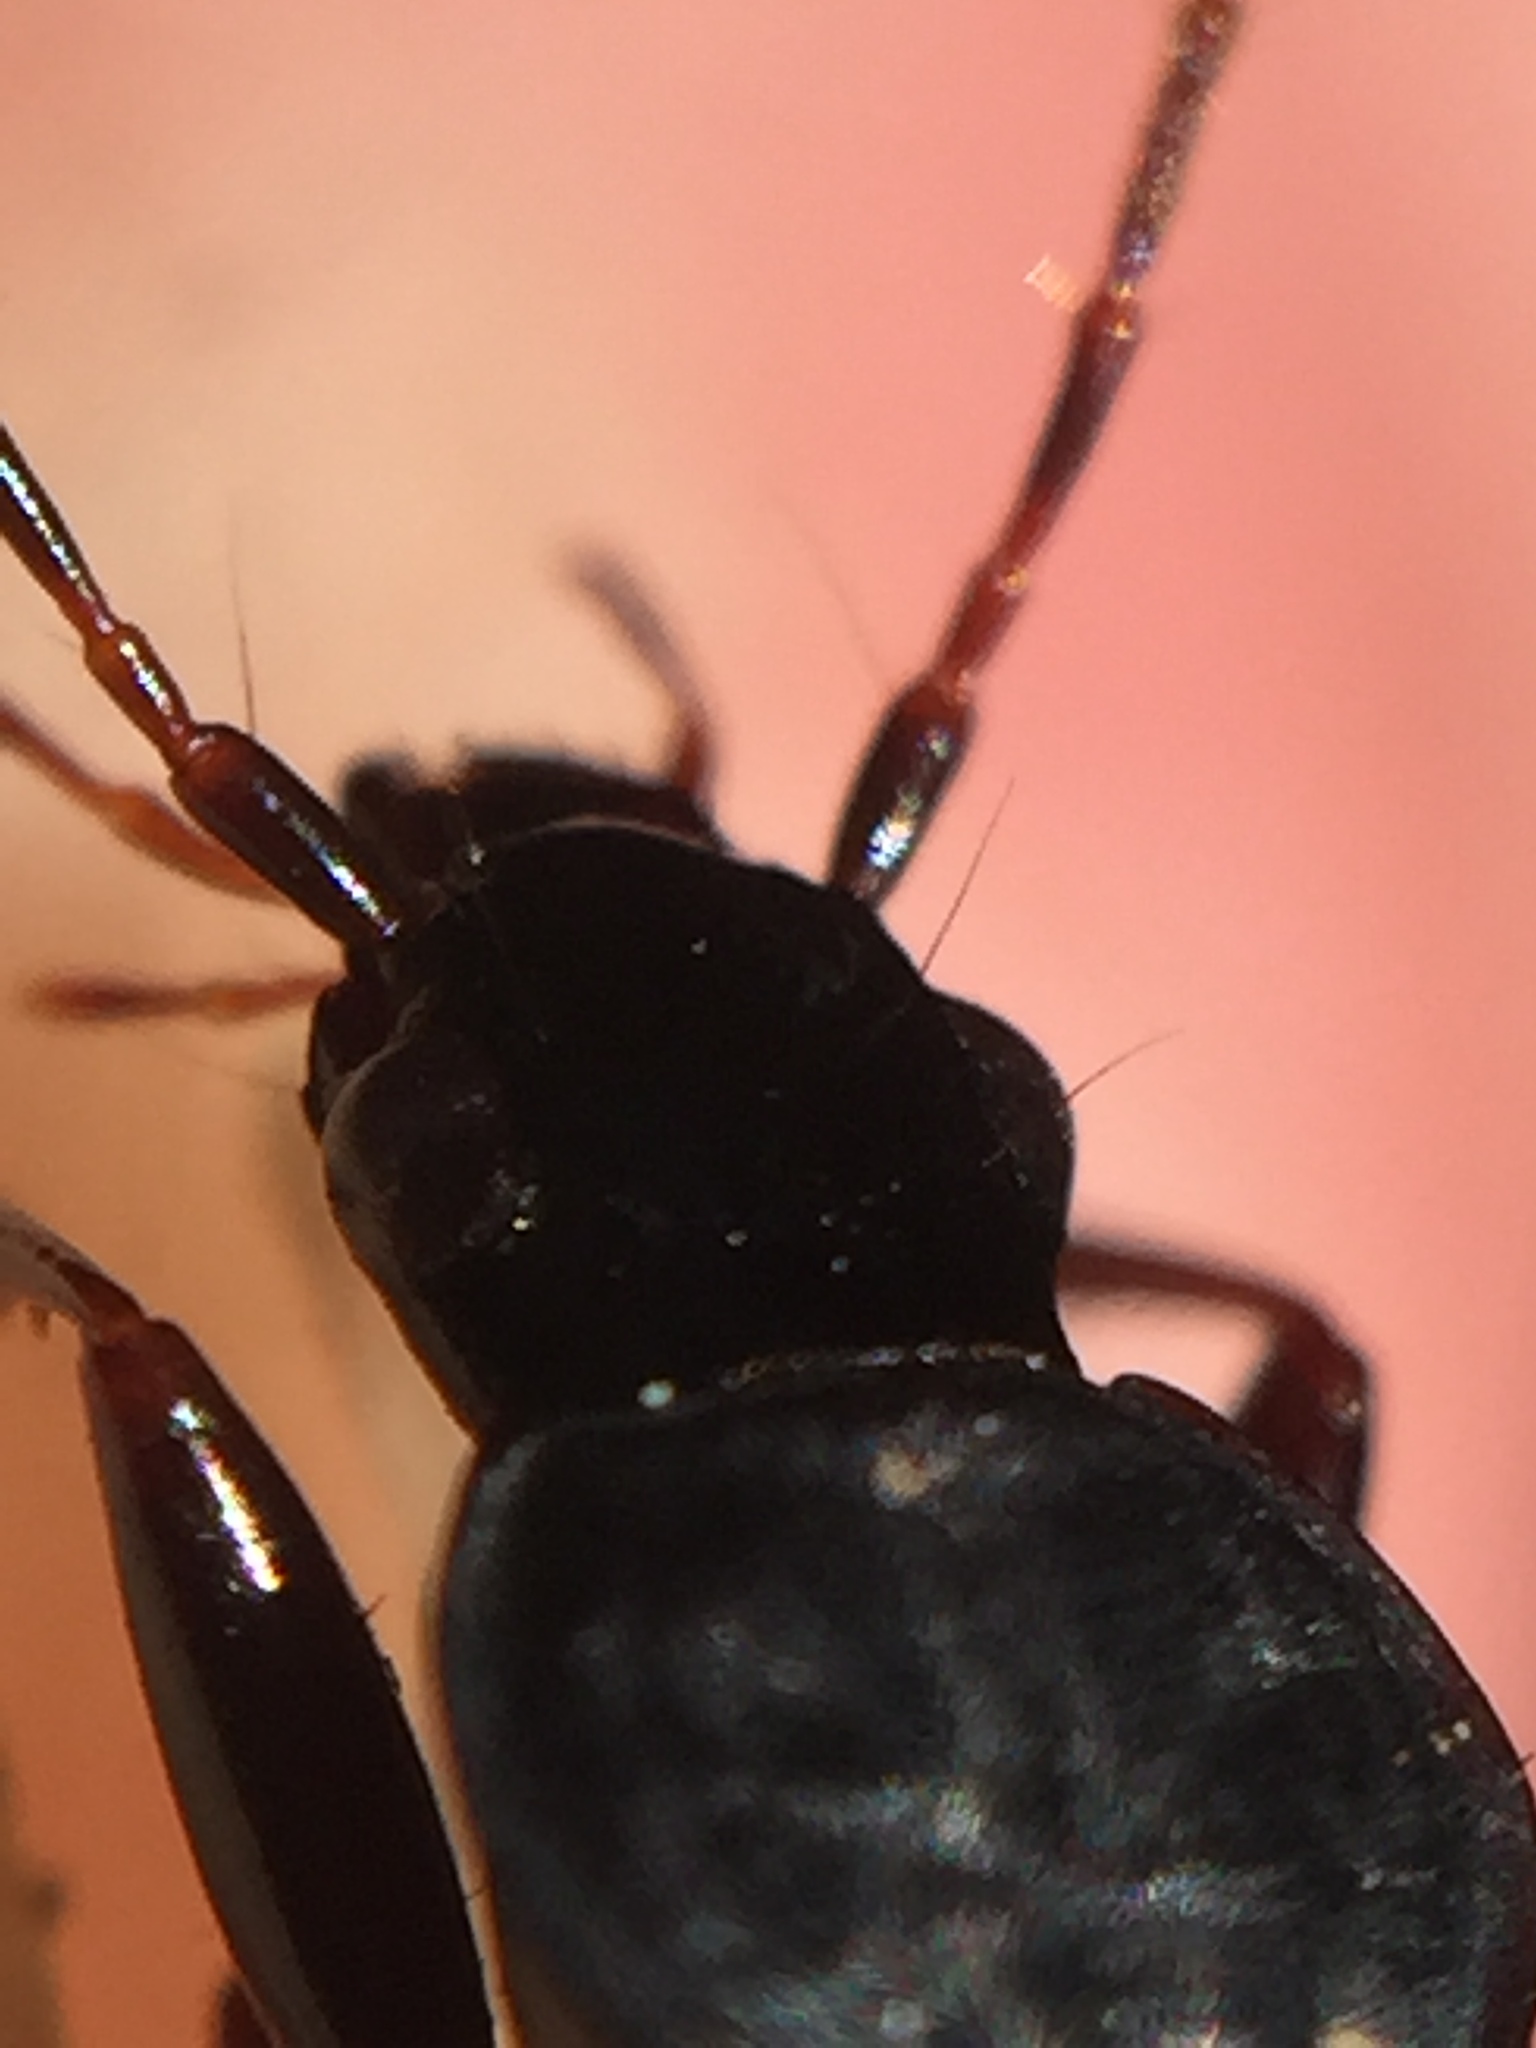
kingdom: Animalia
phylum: Arthropoda
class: Insecta
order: Coleoptera
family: Carabidae
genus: Ctenognathus
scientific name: Ctenognathus cardiophorus
